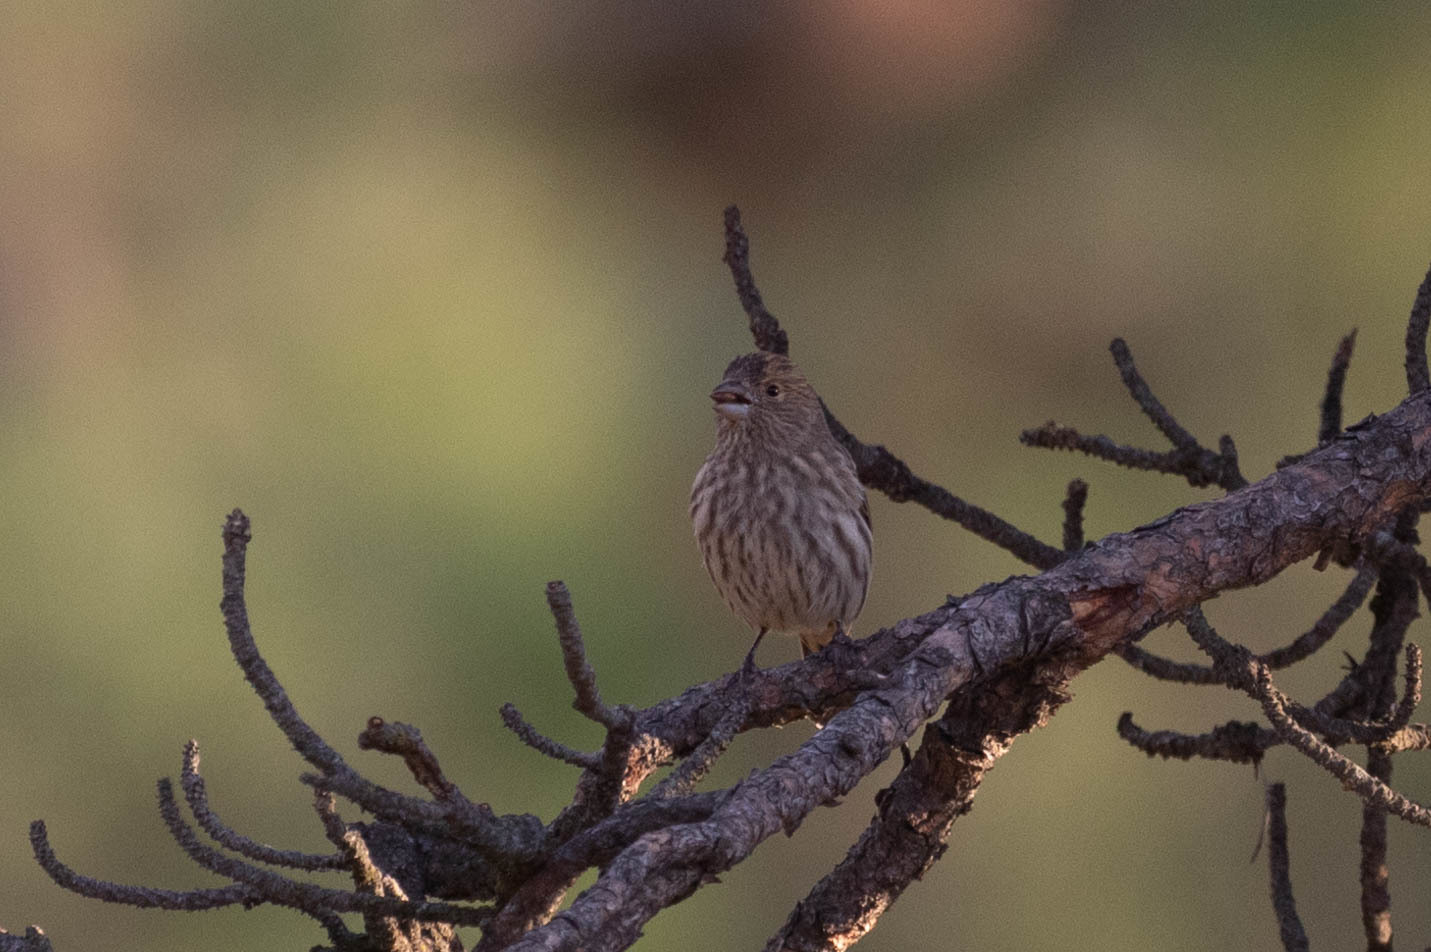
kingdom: Animalia
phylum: Chordata
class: Aves
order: Passeriformes
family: Fringillidae
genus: Haemorhous
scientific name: Haemorhous mexicanus
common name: House finch
